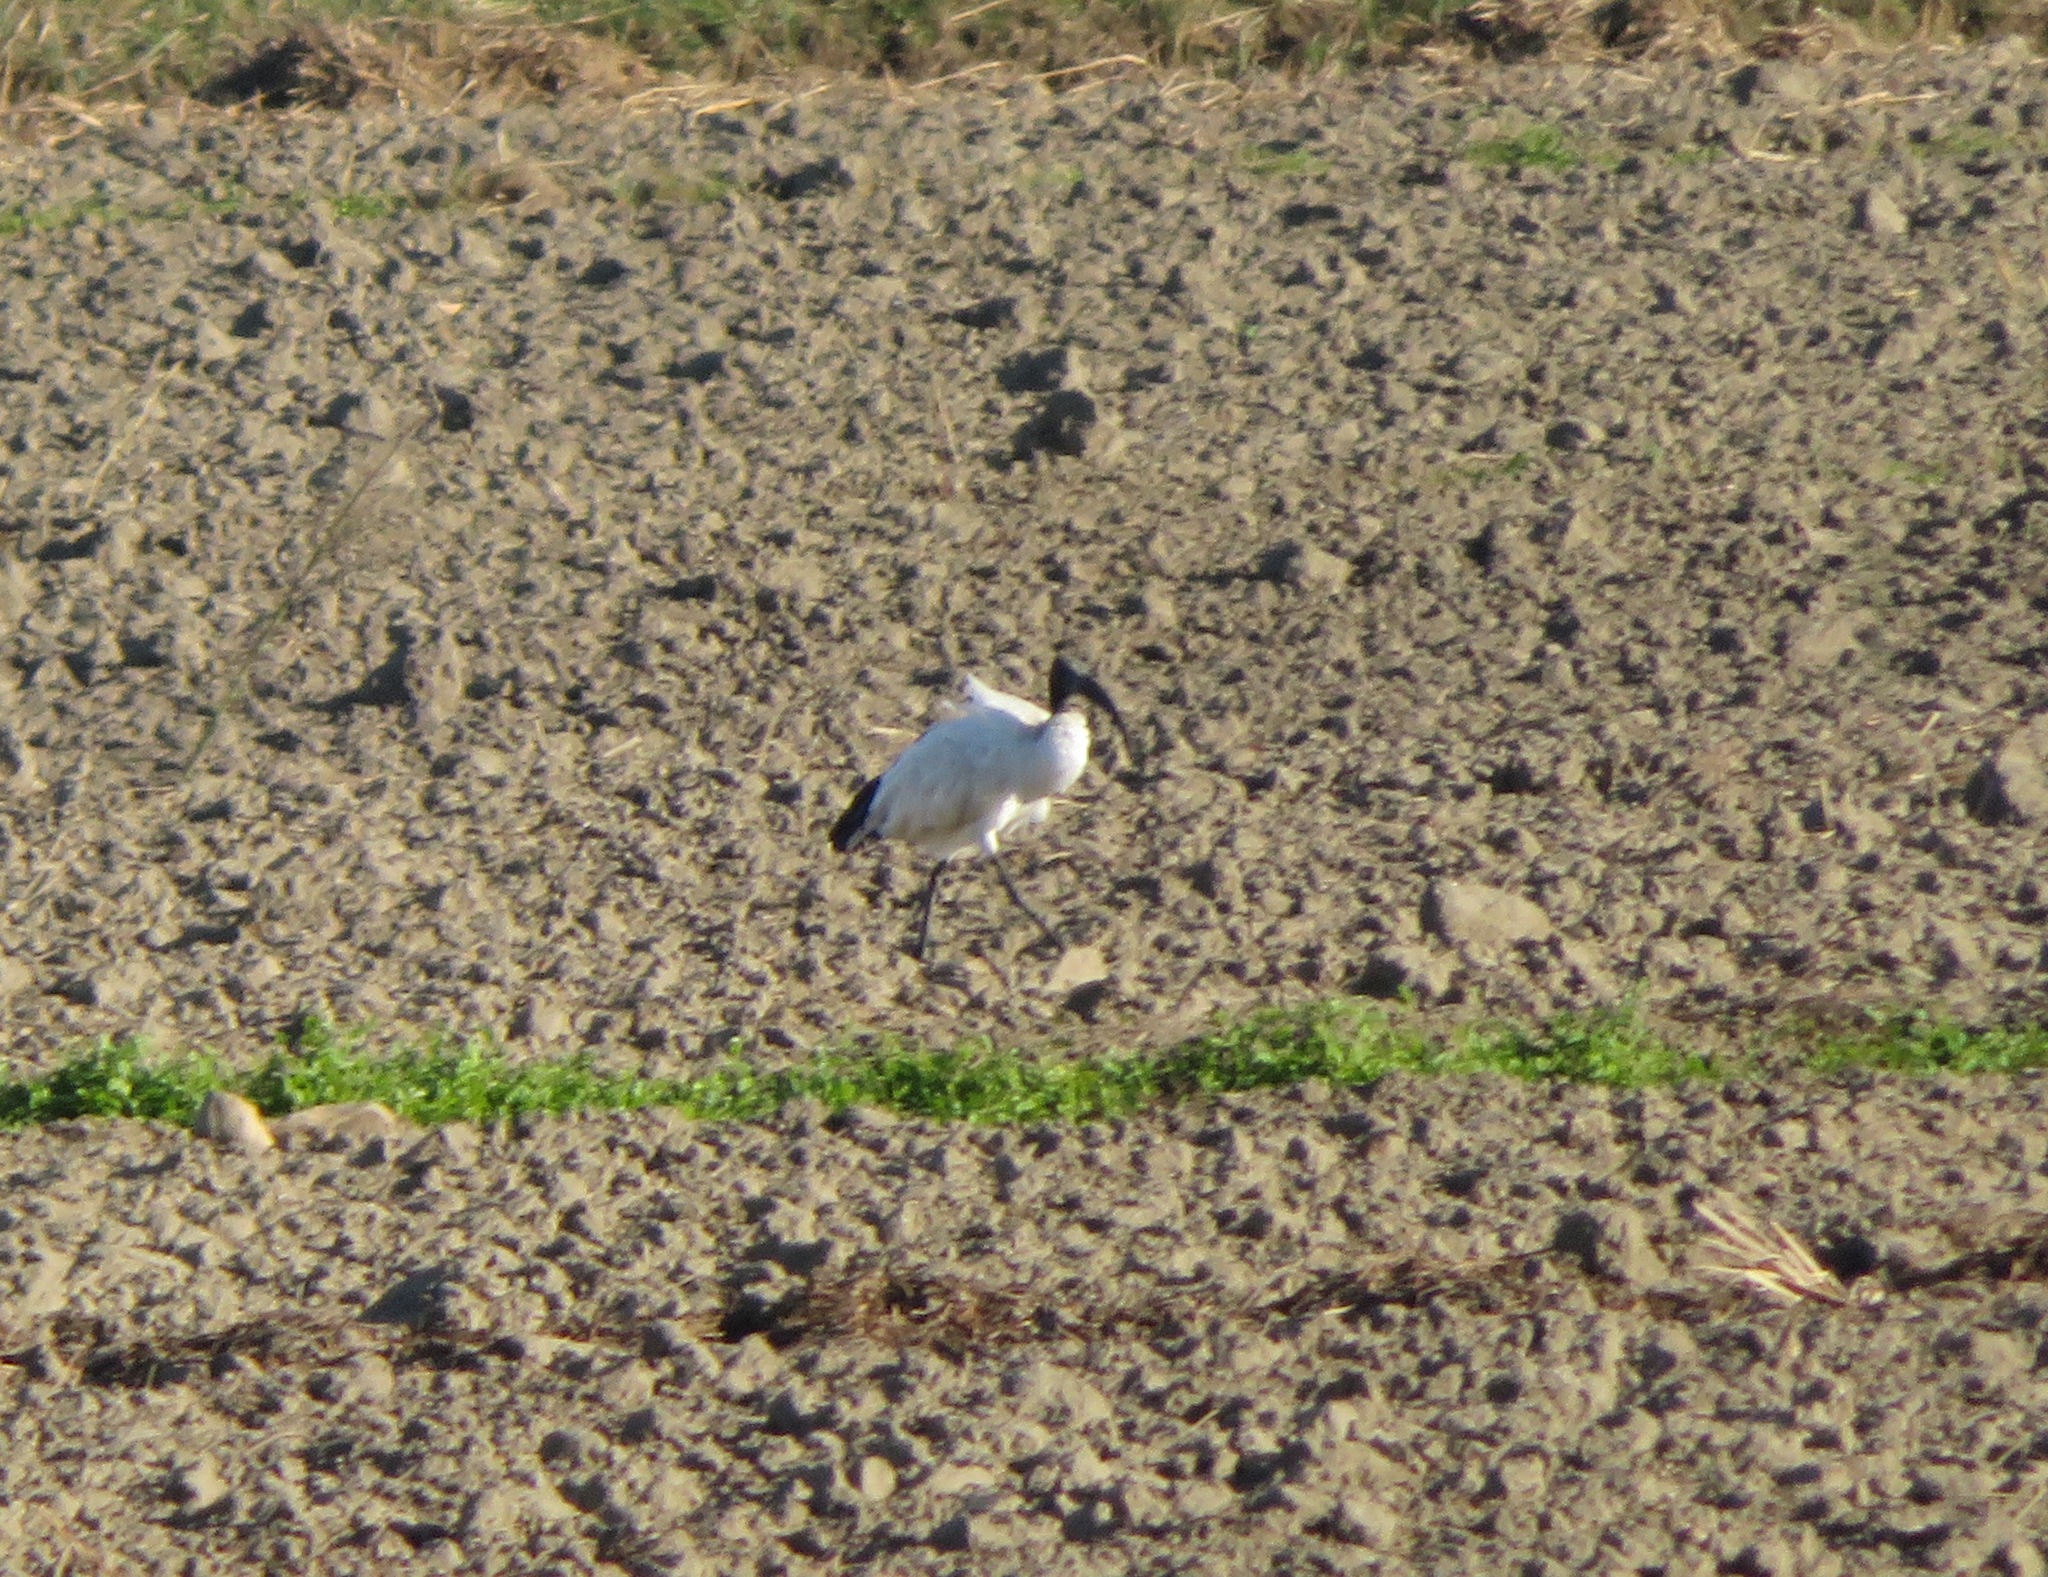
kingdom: Animalia
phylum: Chordata
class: Aves
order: Pelecaniformes
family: Threskiornithidae
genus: Threskiornis
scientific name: Threskiornis aethiopicus
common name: Sacred ibis
